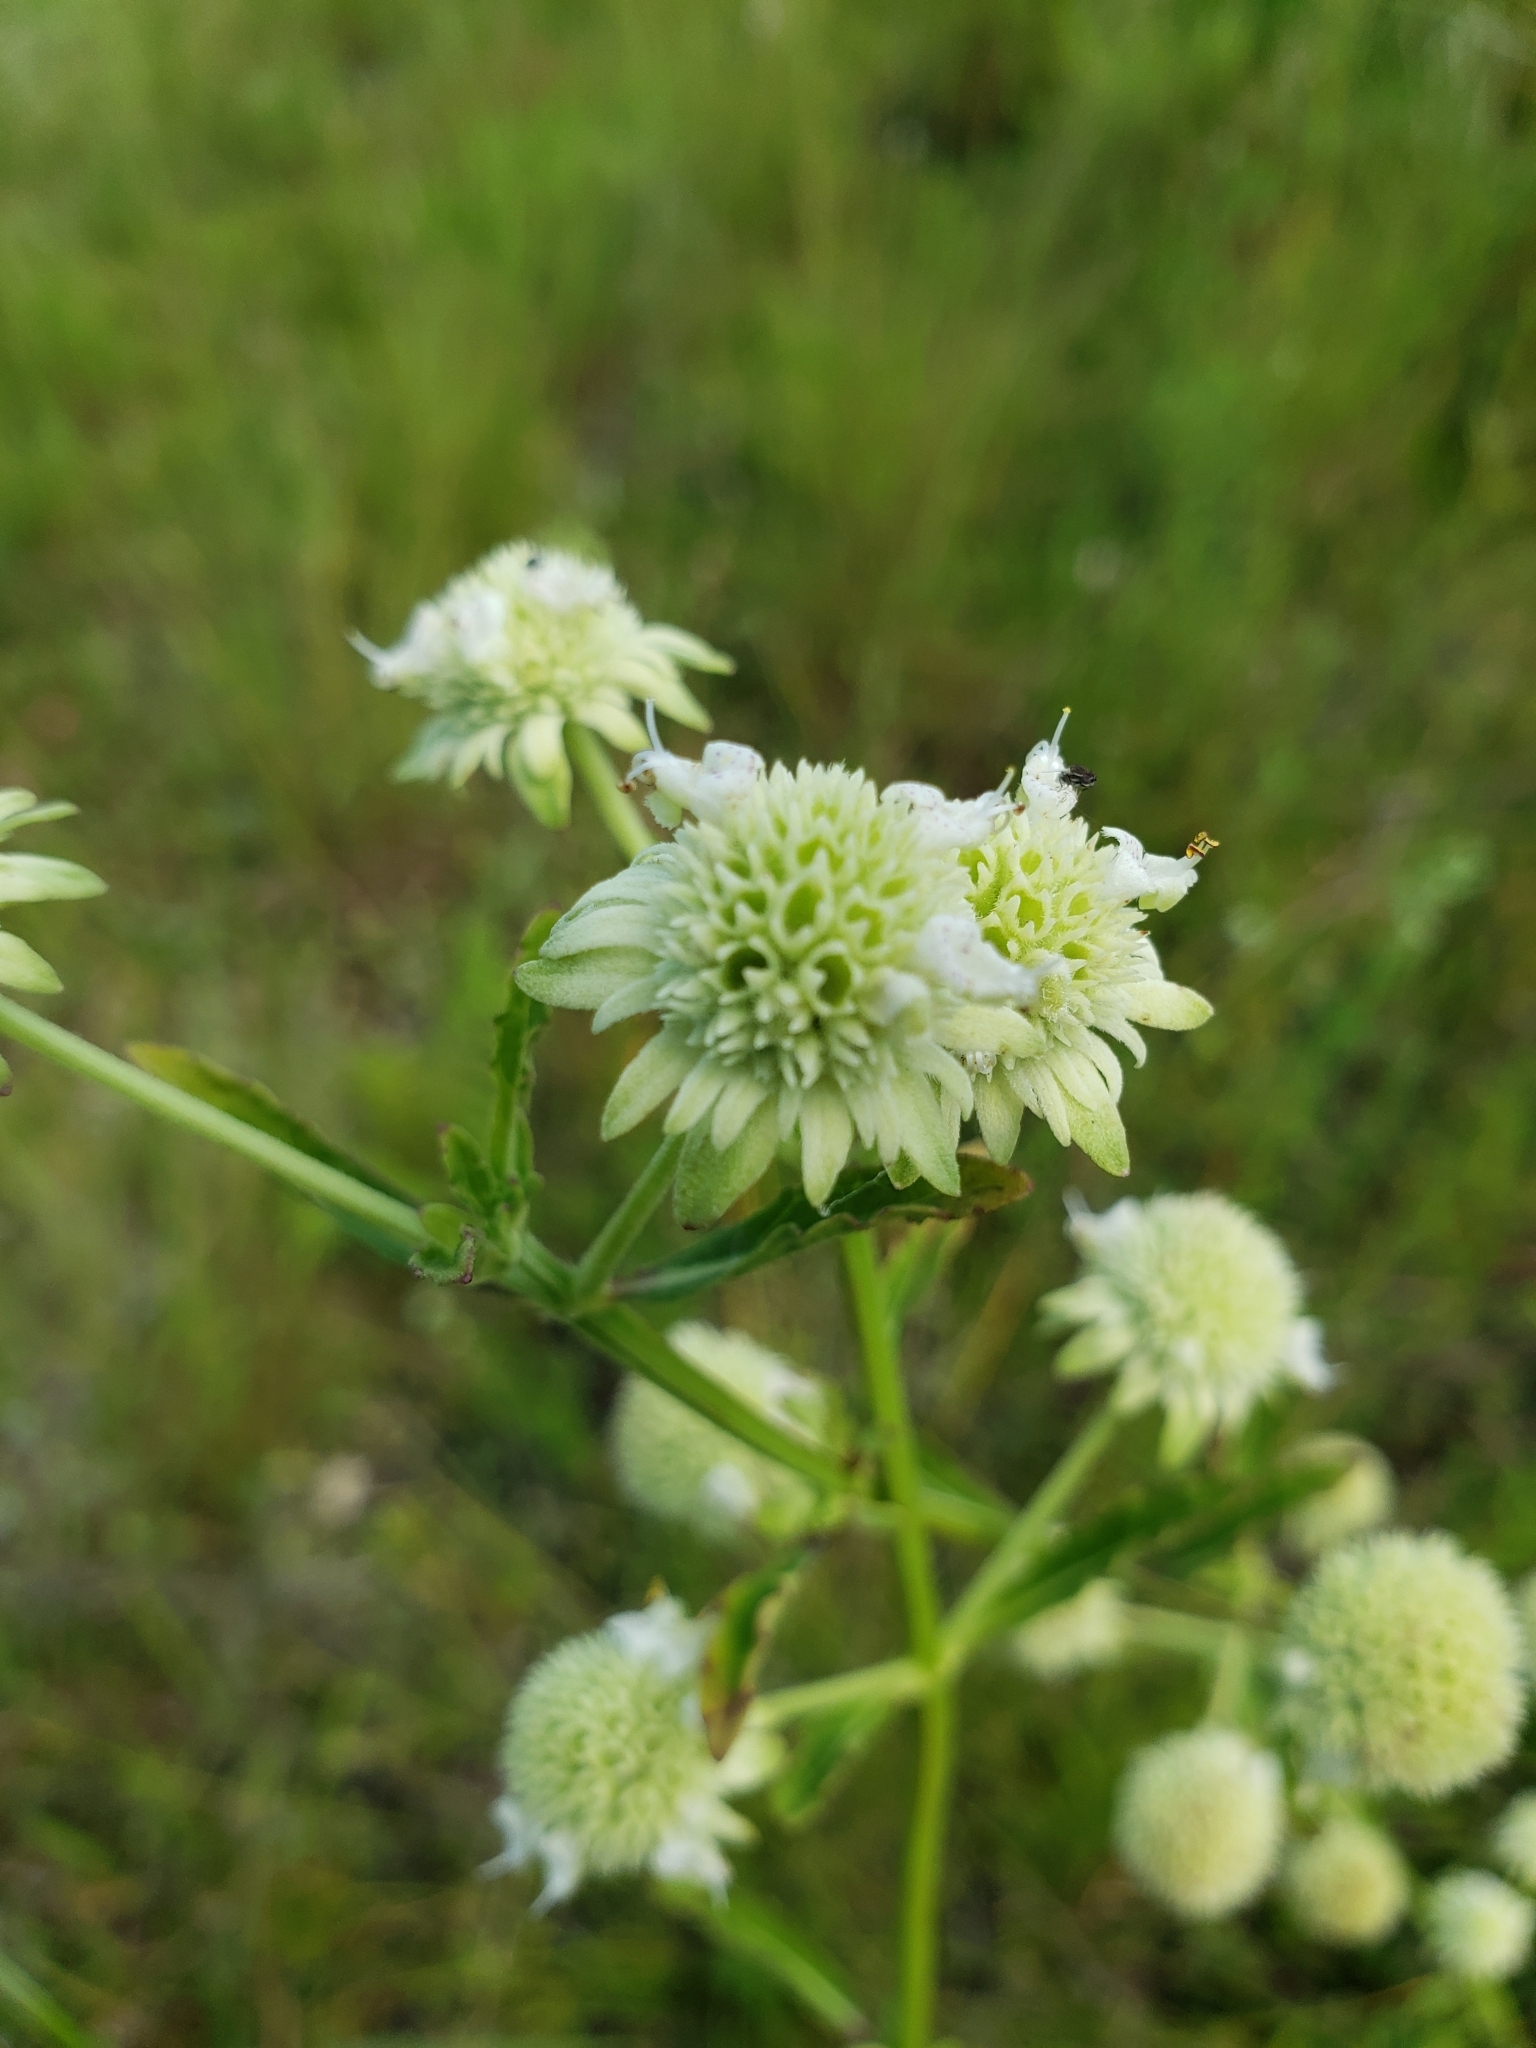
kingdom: Plantae
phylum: Tracheophyta
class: Magnoliopsida
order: Lamiales
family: Lamiaceae
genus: Hyptis
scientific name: Hyptis alata
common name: Cluster bush-mint
